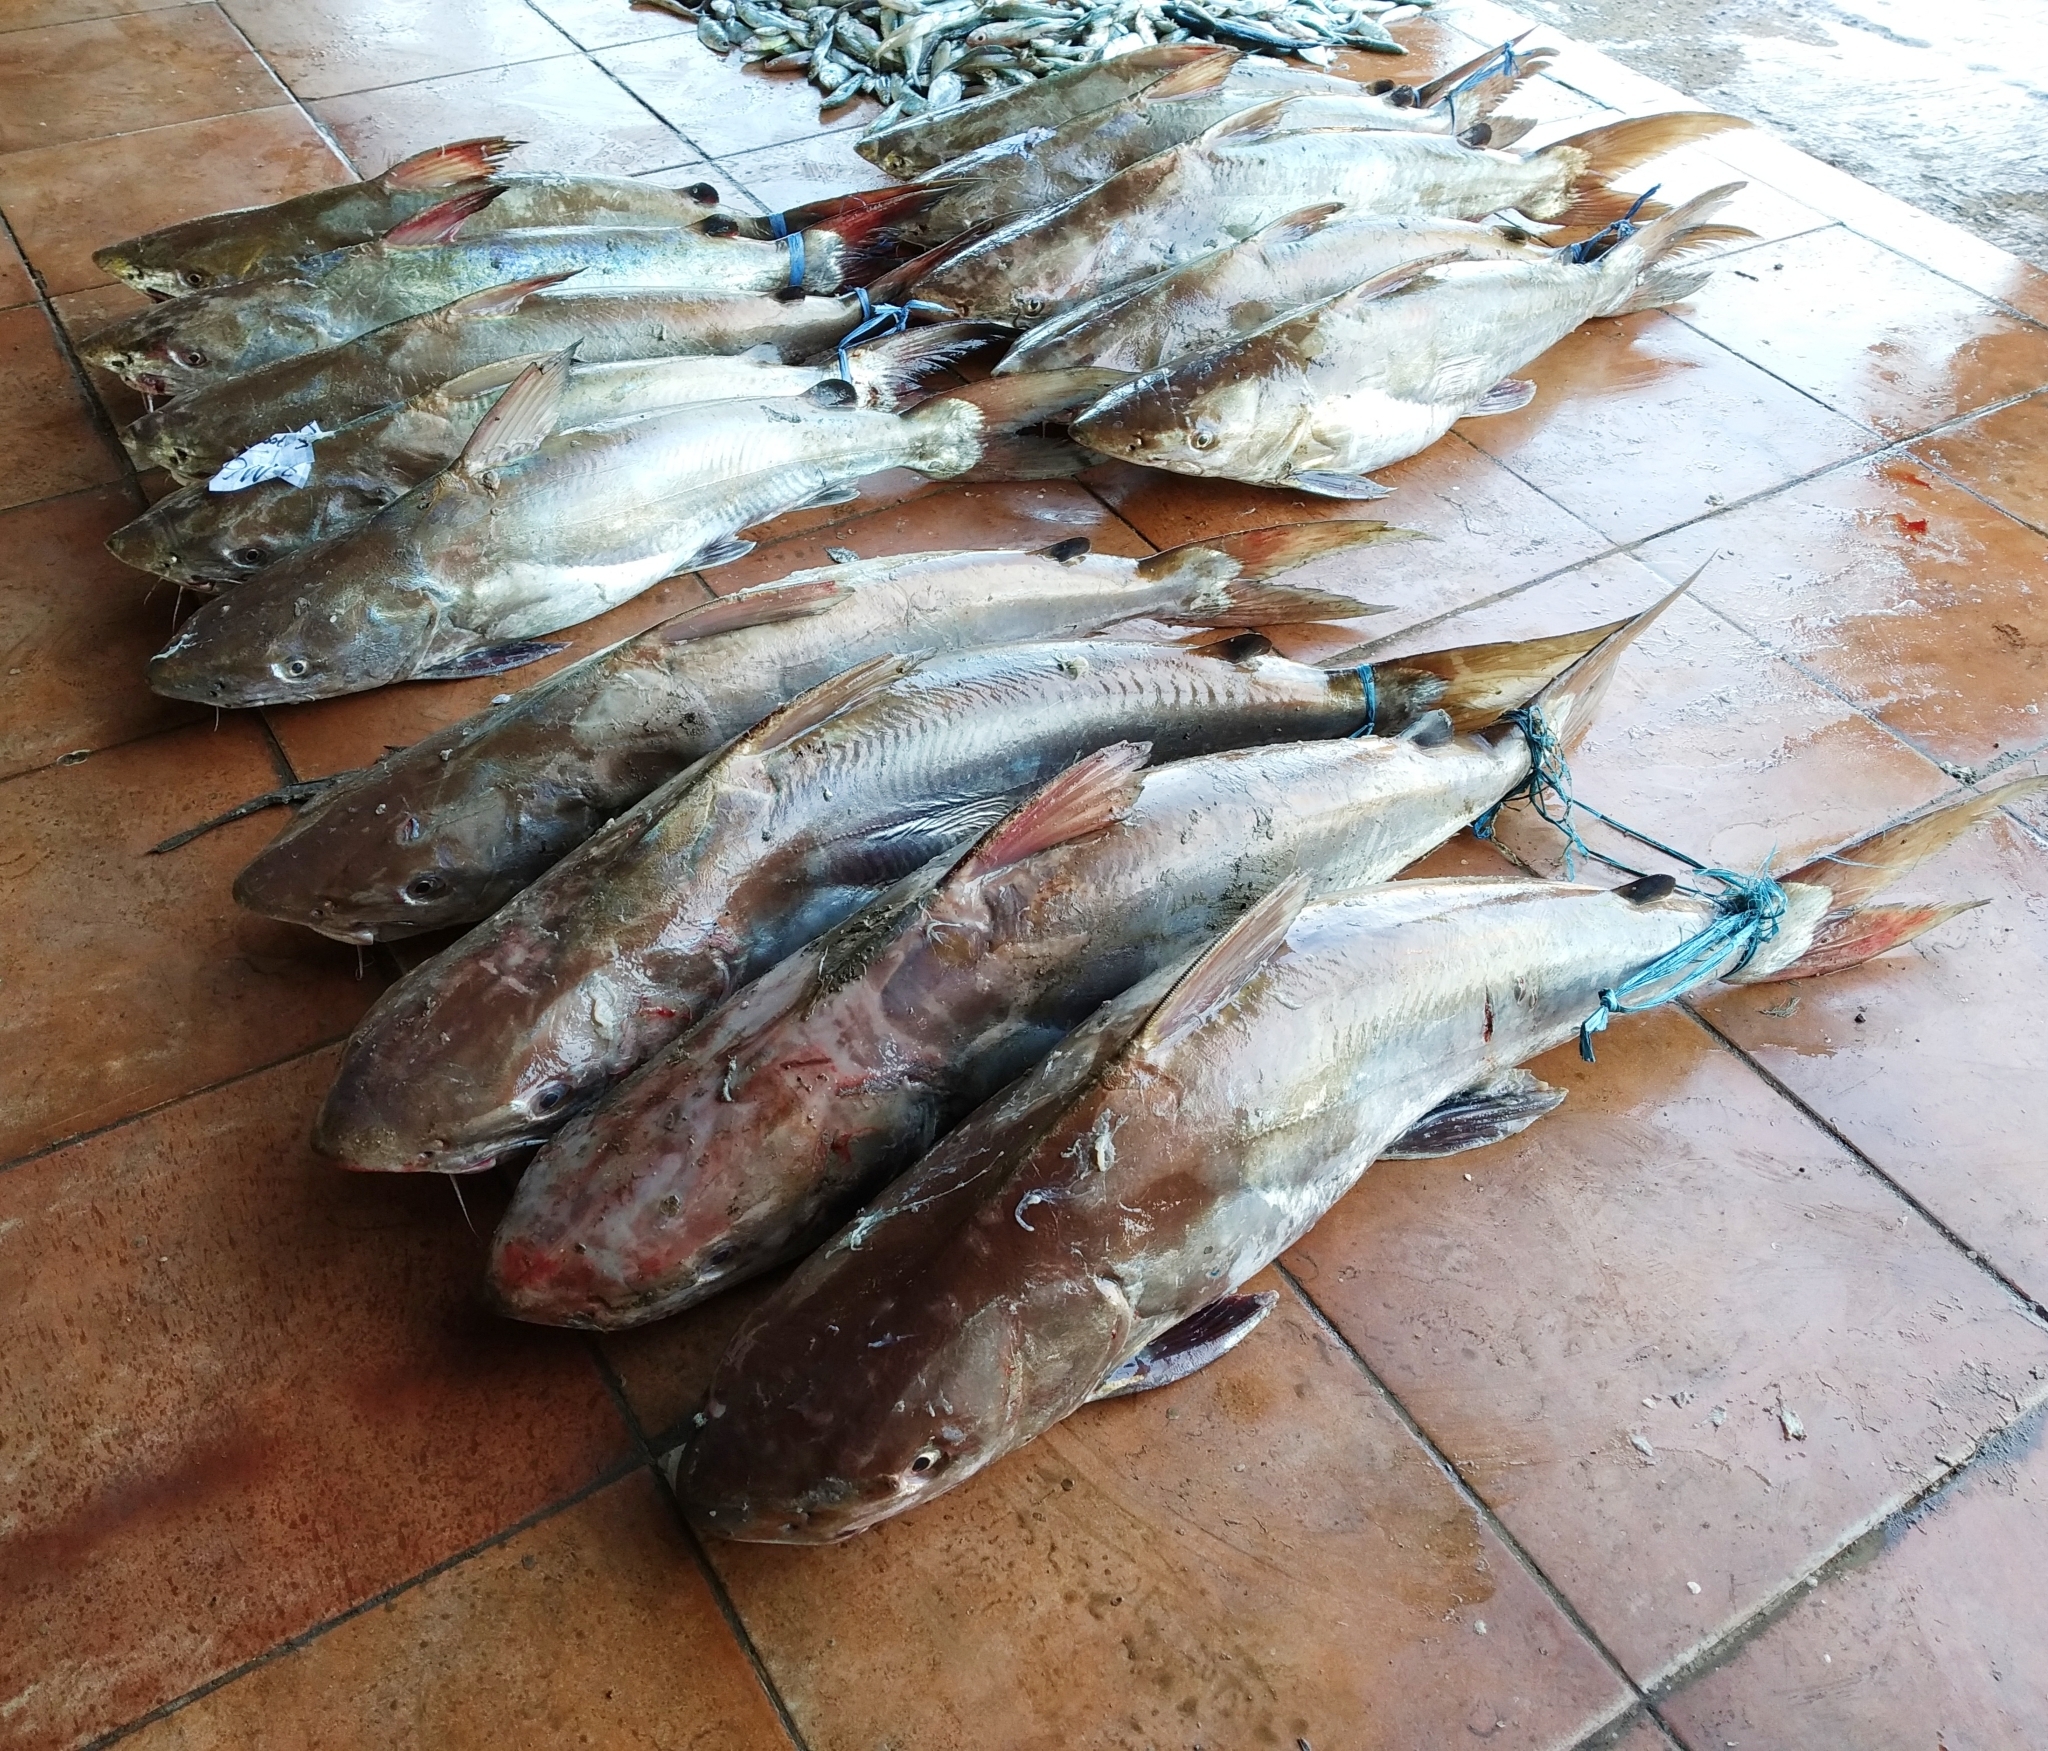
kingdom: Animalia
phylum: Chordata
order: Siluriformes
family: Ariidae
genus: Netuma
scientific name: Netuma thalassina
